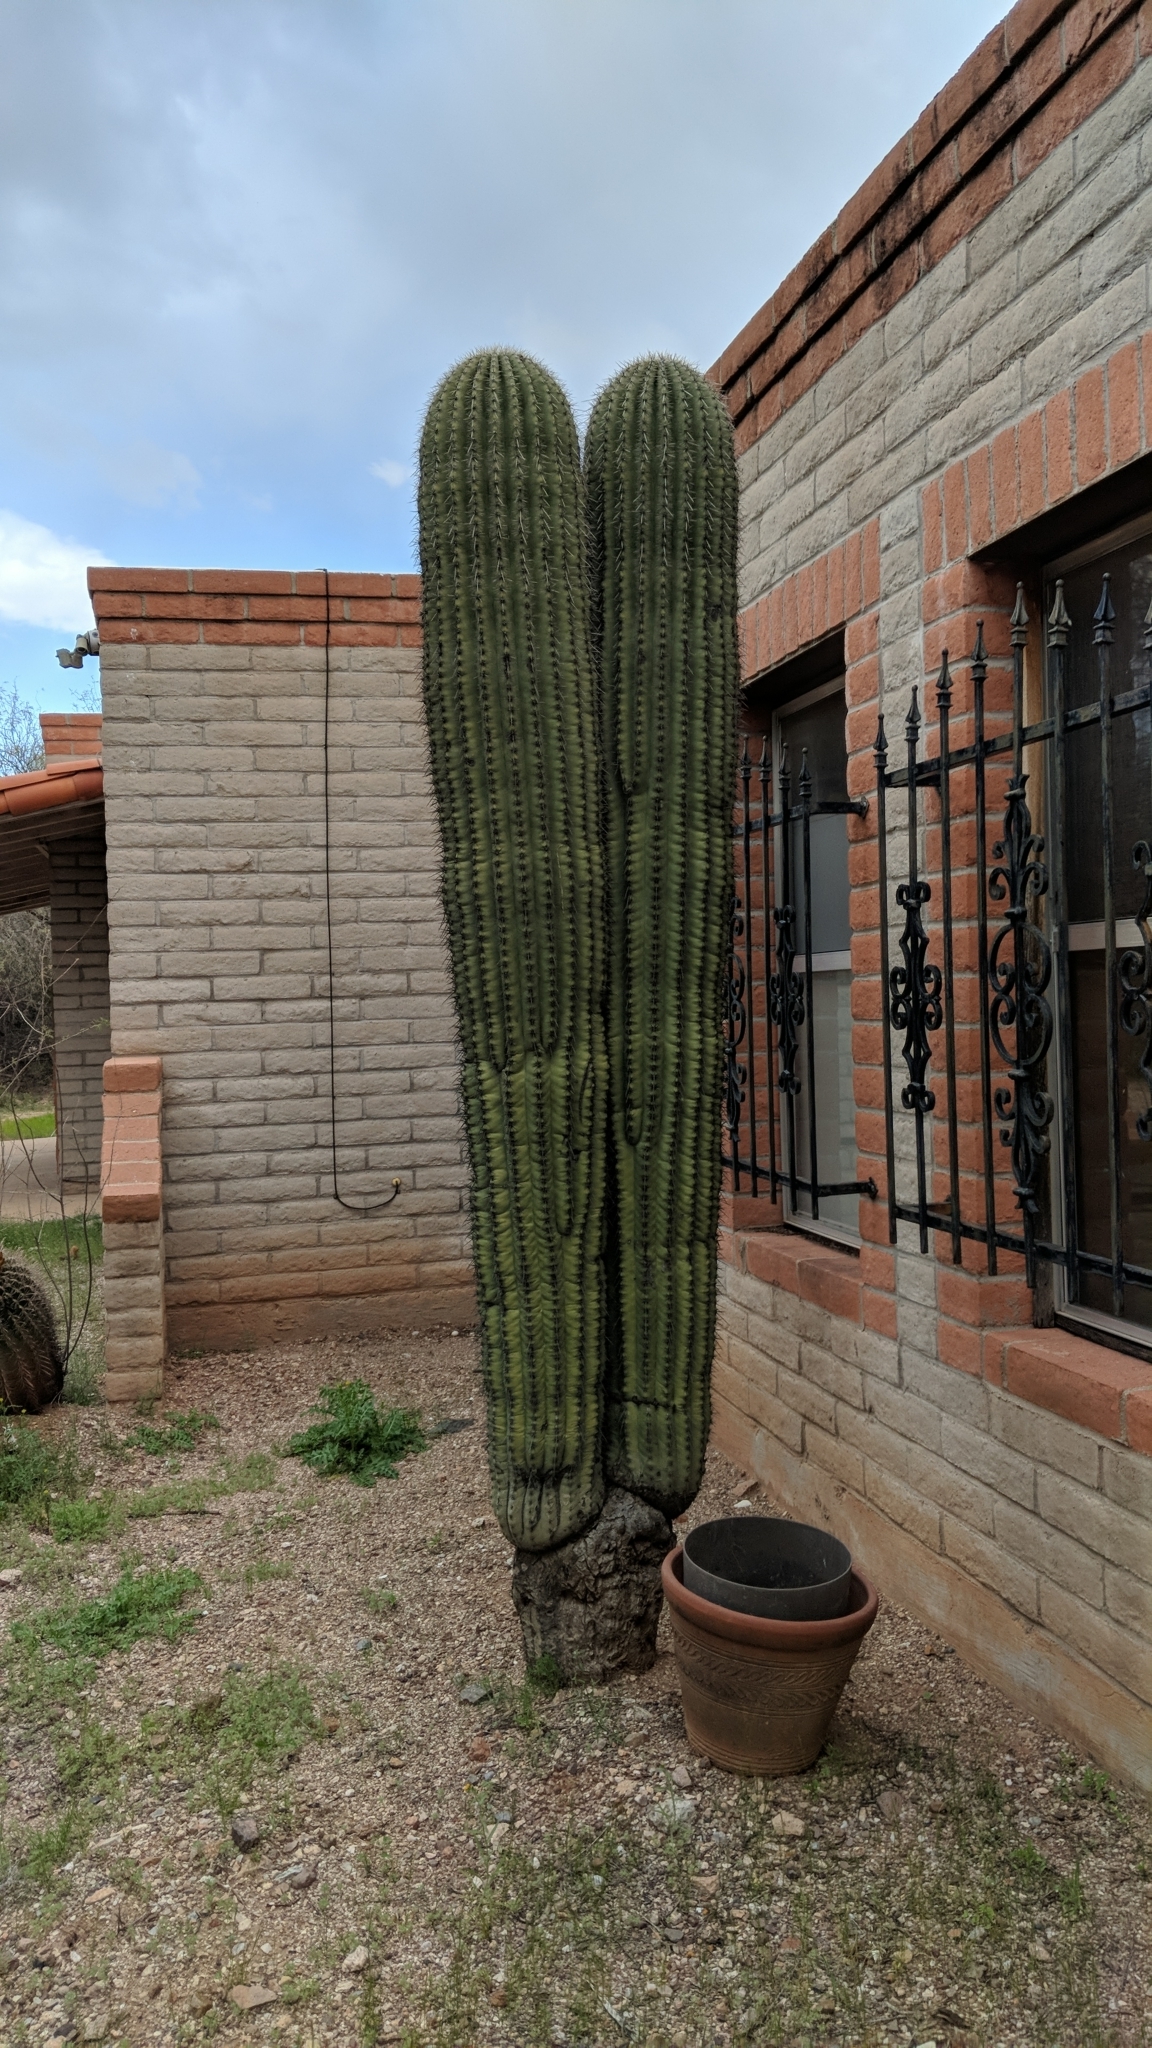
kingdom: Plantae
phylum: Tracheophyta
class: Magnoliopsida
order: Caryophyllales
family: Cactaceae
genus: Carnegiea
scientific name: Carnegiea gigantea
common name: Saguaro
